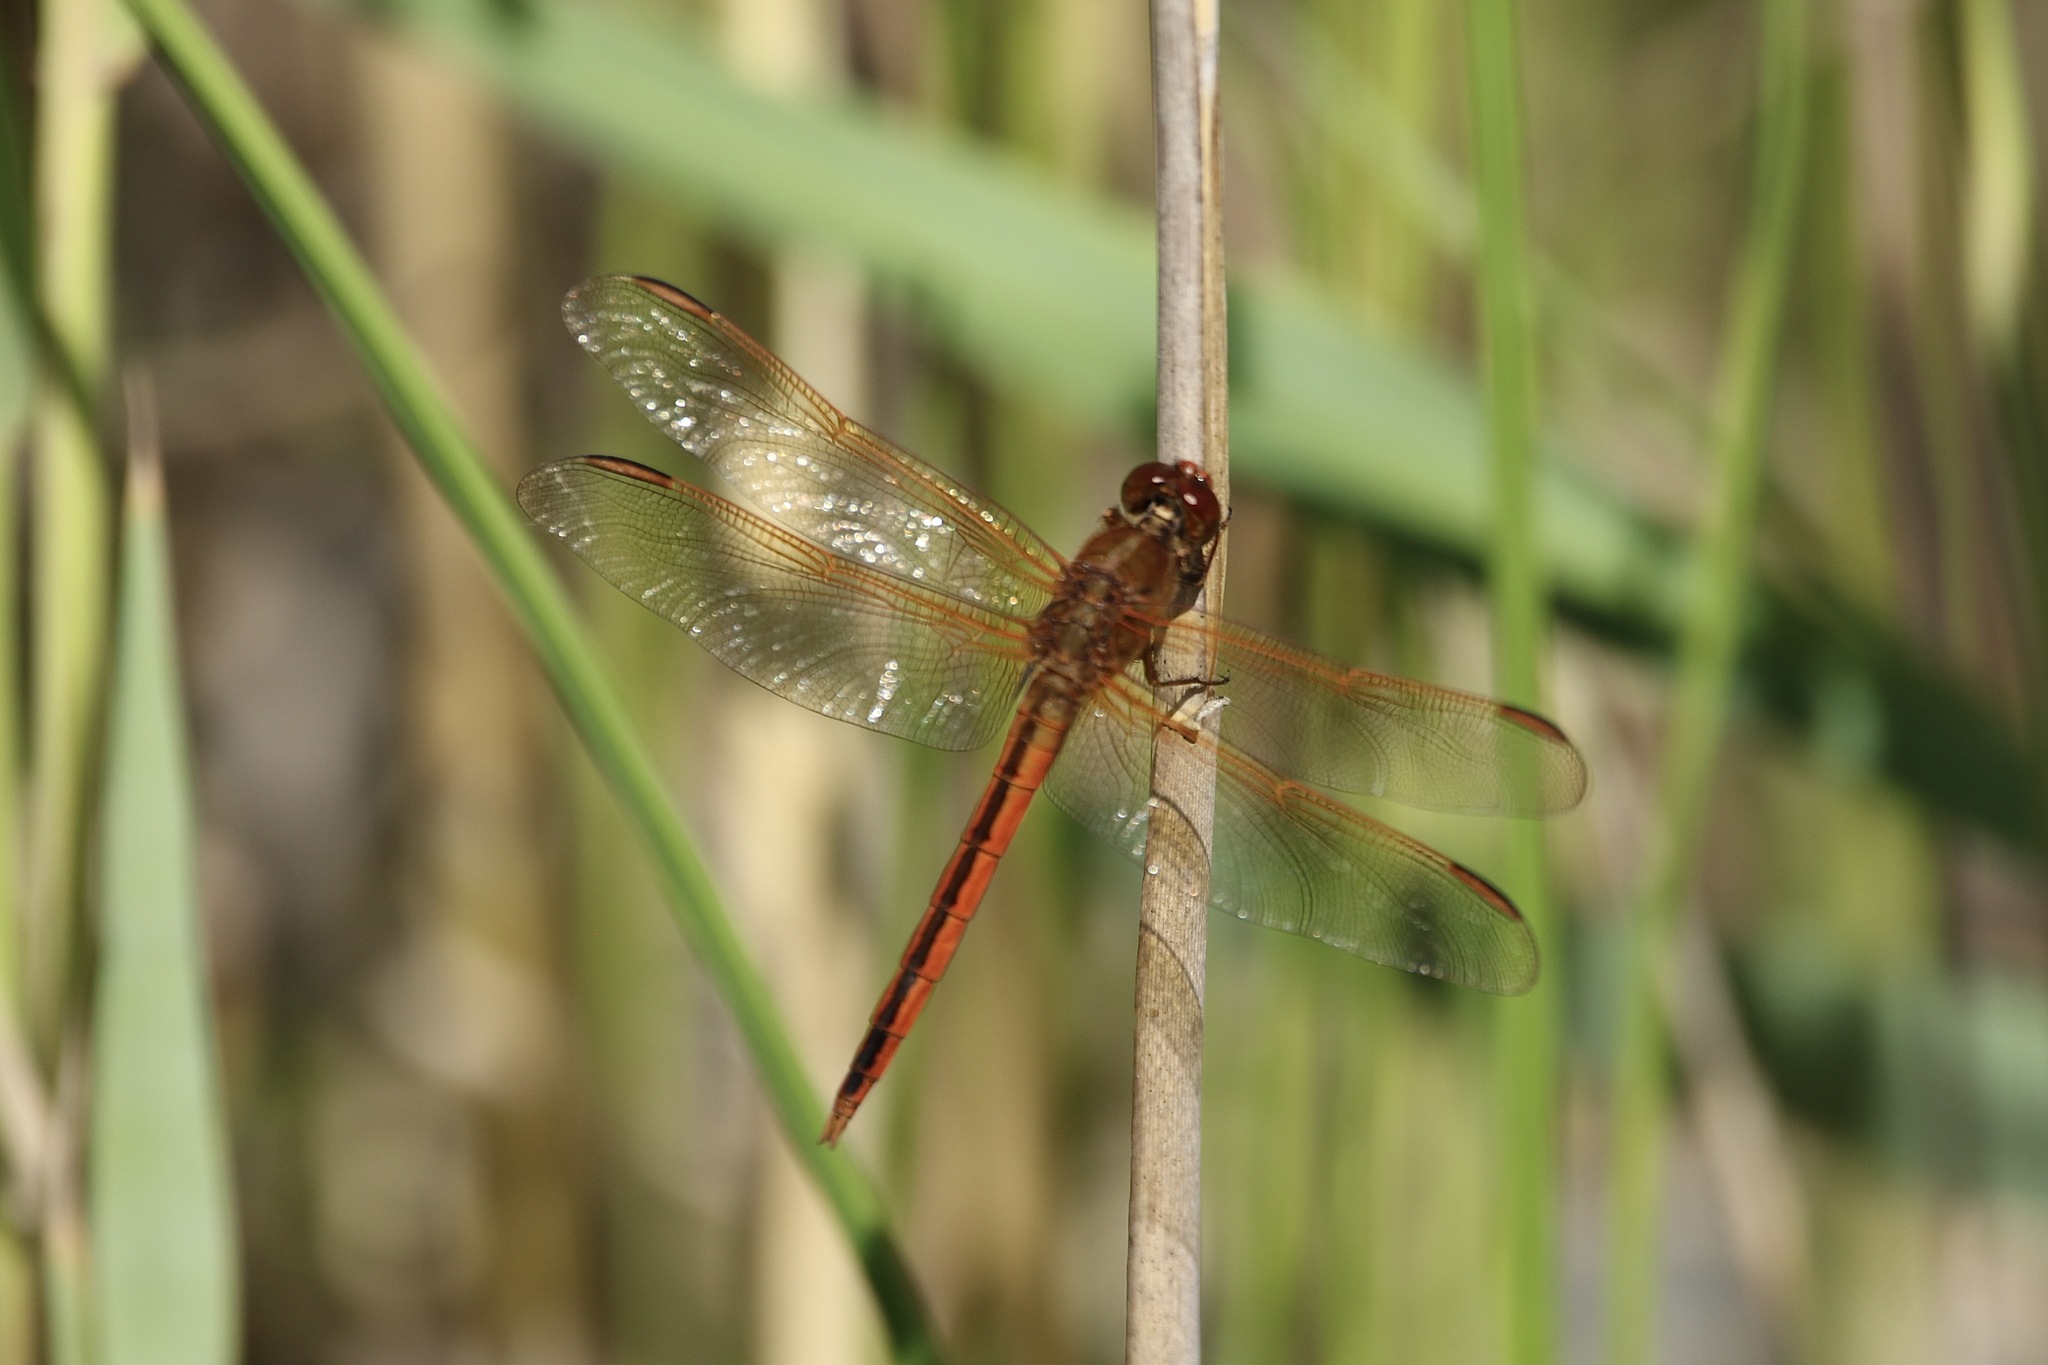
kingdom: Animalia
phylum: Arthropoda
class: Insecta
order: Odonata
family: Libellulidae
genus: Libellula
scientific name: Libellula needhami
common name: Needham's skimmer
